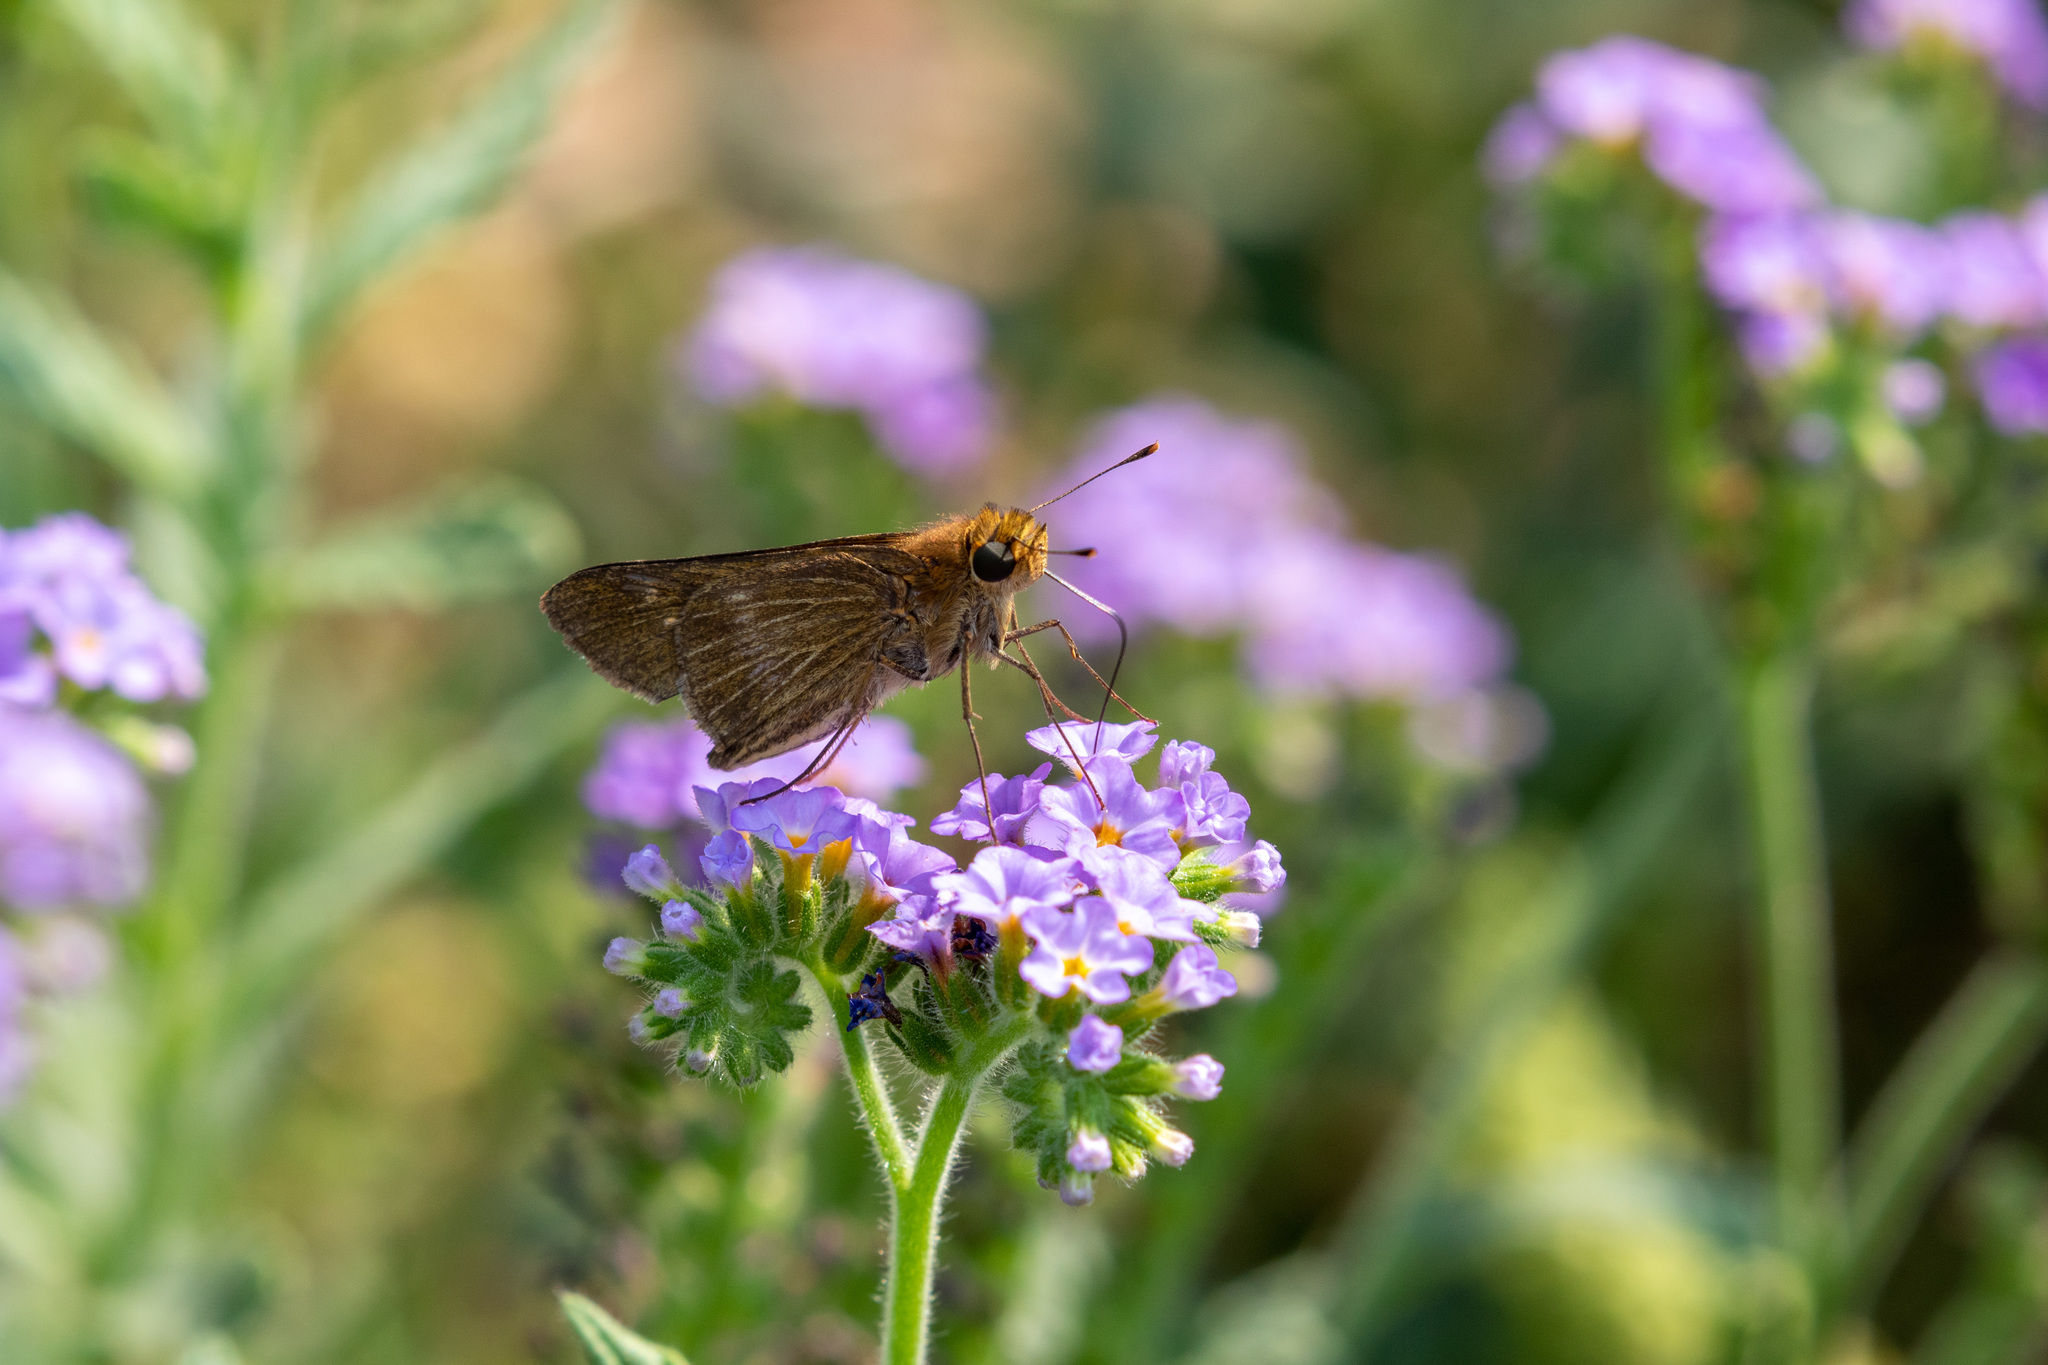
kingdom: Animalia
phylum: Arthropoda
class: Insecta
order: Lepidoptera
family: Hesperiidae
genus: Panoquina
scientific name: Panoquina ocola
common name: Ocola skipper
